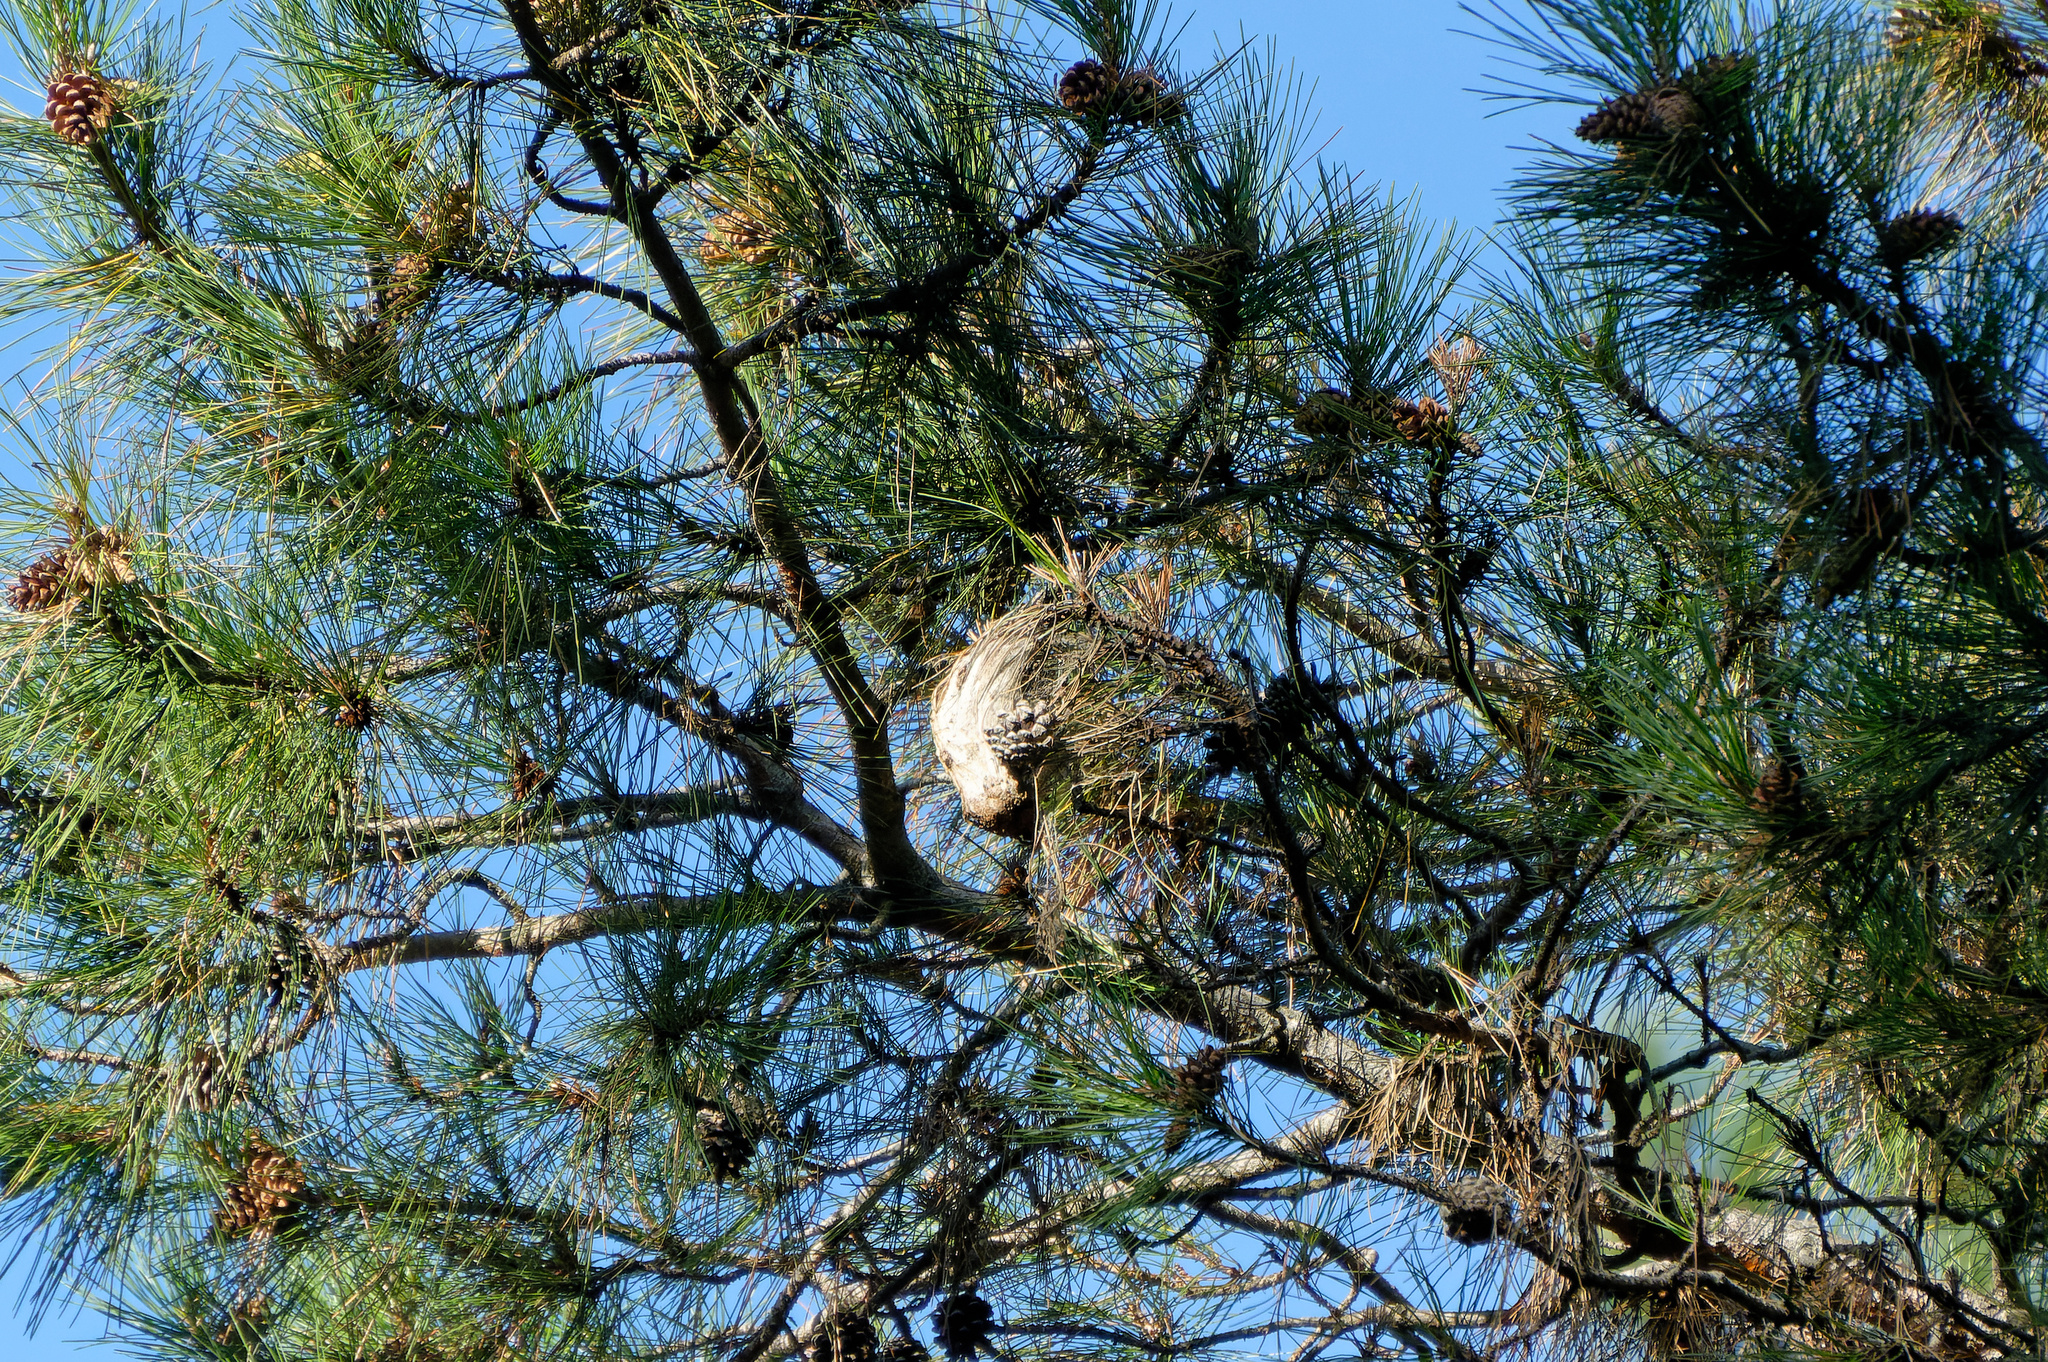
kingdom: Animalia
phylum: Arthropoda
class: Insecta
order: Lepidoptera
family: Notodontidae
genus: Thaumetopoea
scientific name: Thaumetopoea pityocampa
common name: Pine processionary
